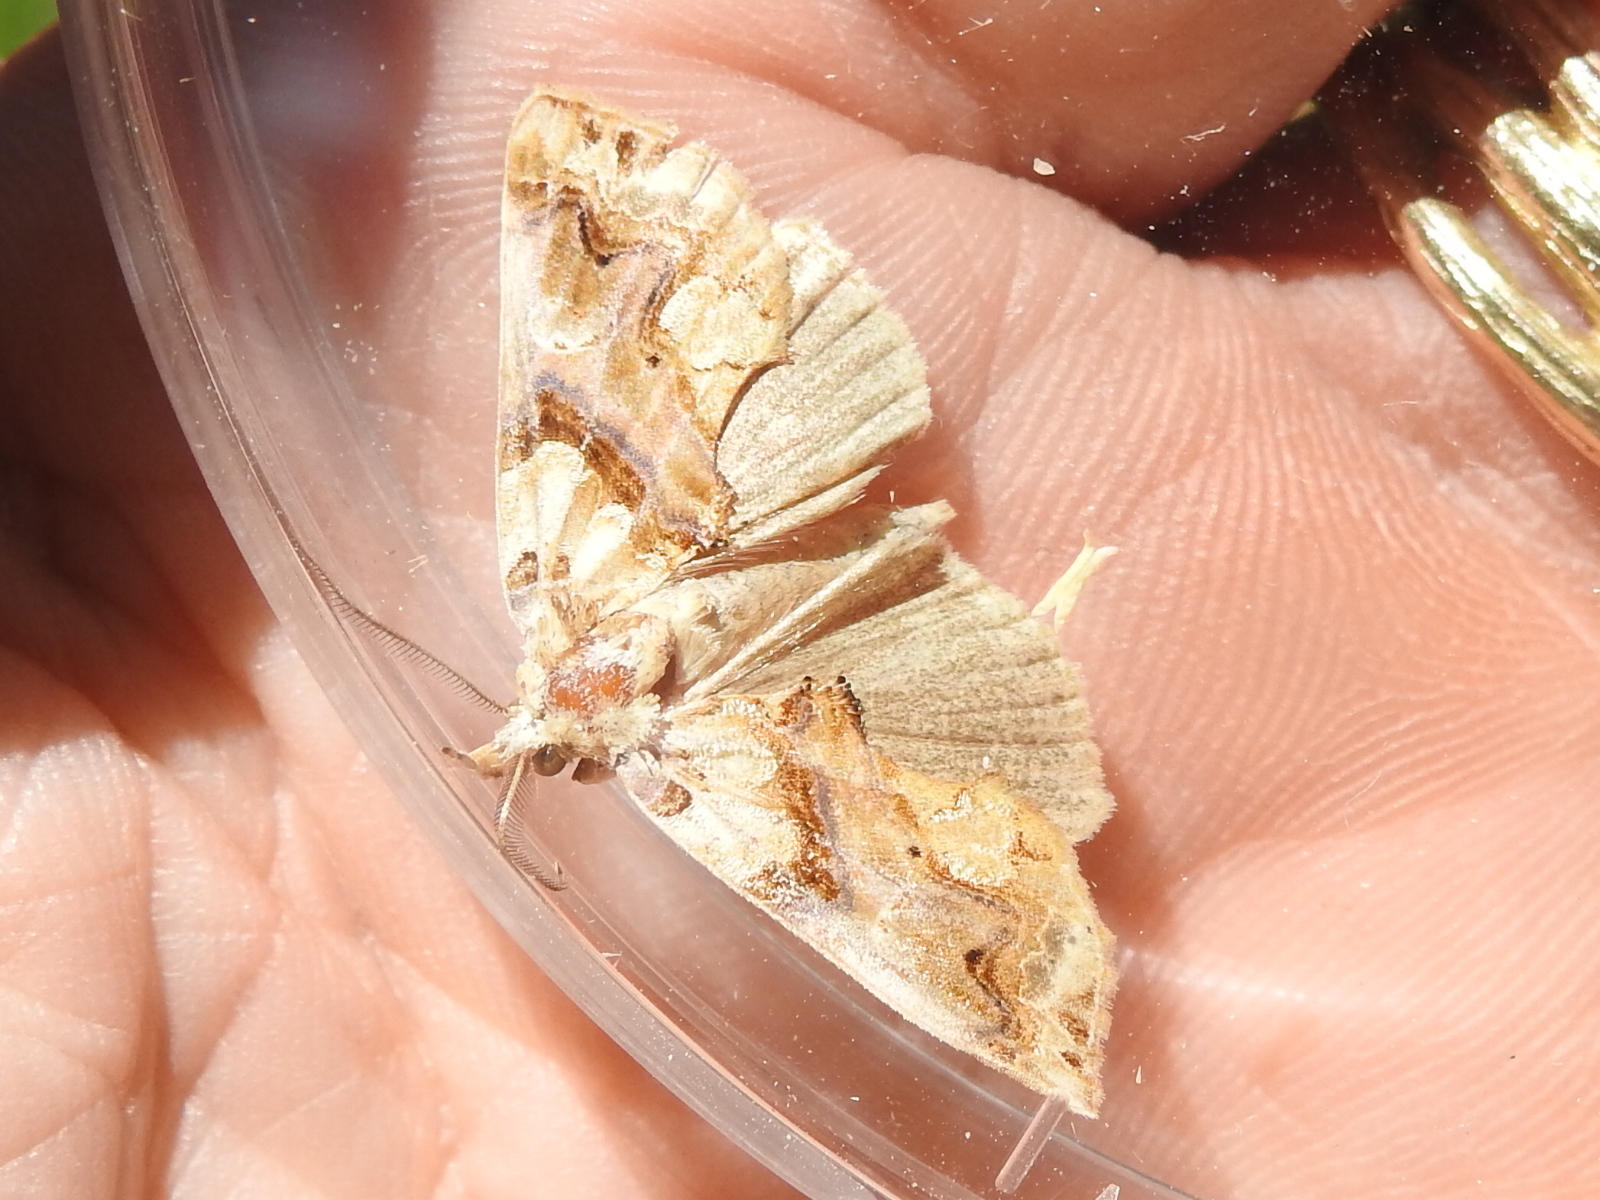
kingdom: Animalia
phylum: Arthropoda
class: Insecta
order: Lepidoptera
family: Erebidae
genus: Plusiodonta
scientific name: Plusiodonta compressipalpis
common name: Moonseed moth
